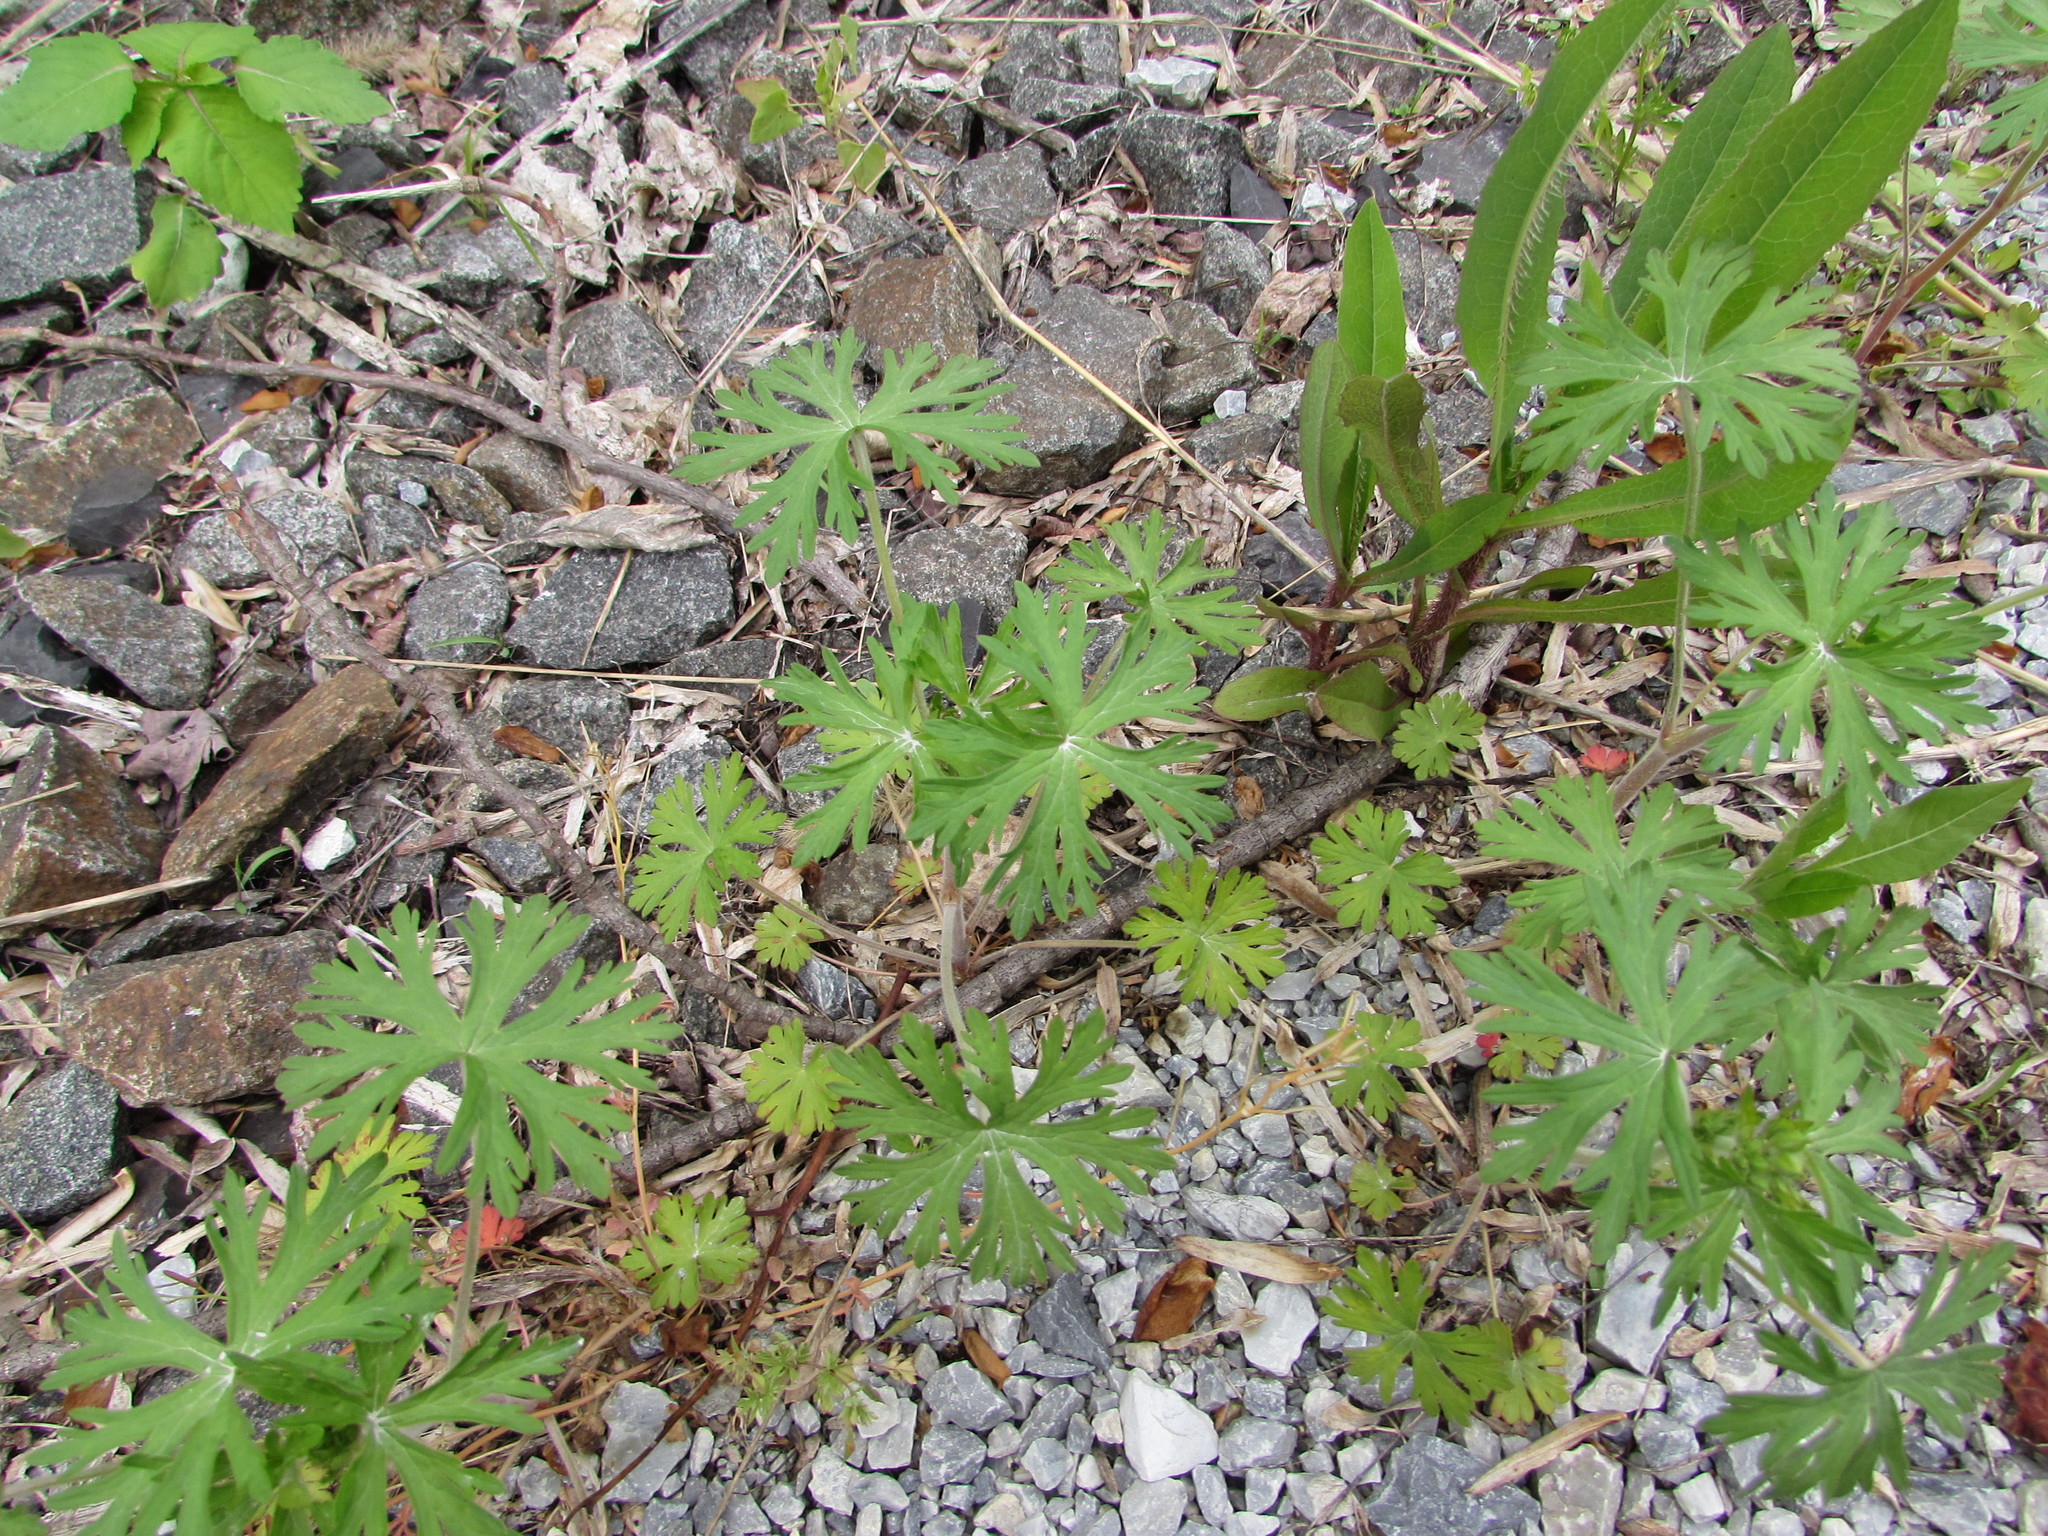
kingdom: Plantae
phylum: Tracheophyta
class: Magnoliopsida
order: Geraniales
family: Geraniaceae
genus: Geranium
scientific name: Geranium carolinianum
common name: Carolina crane's-bill
